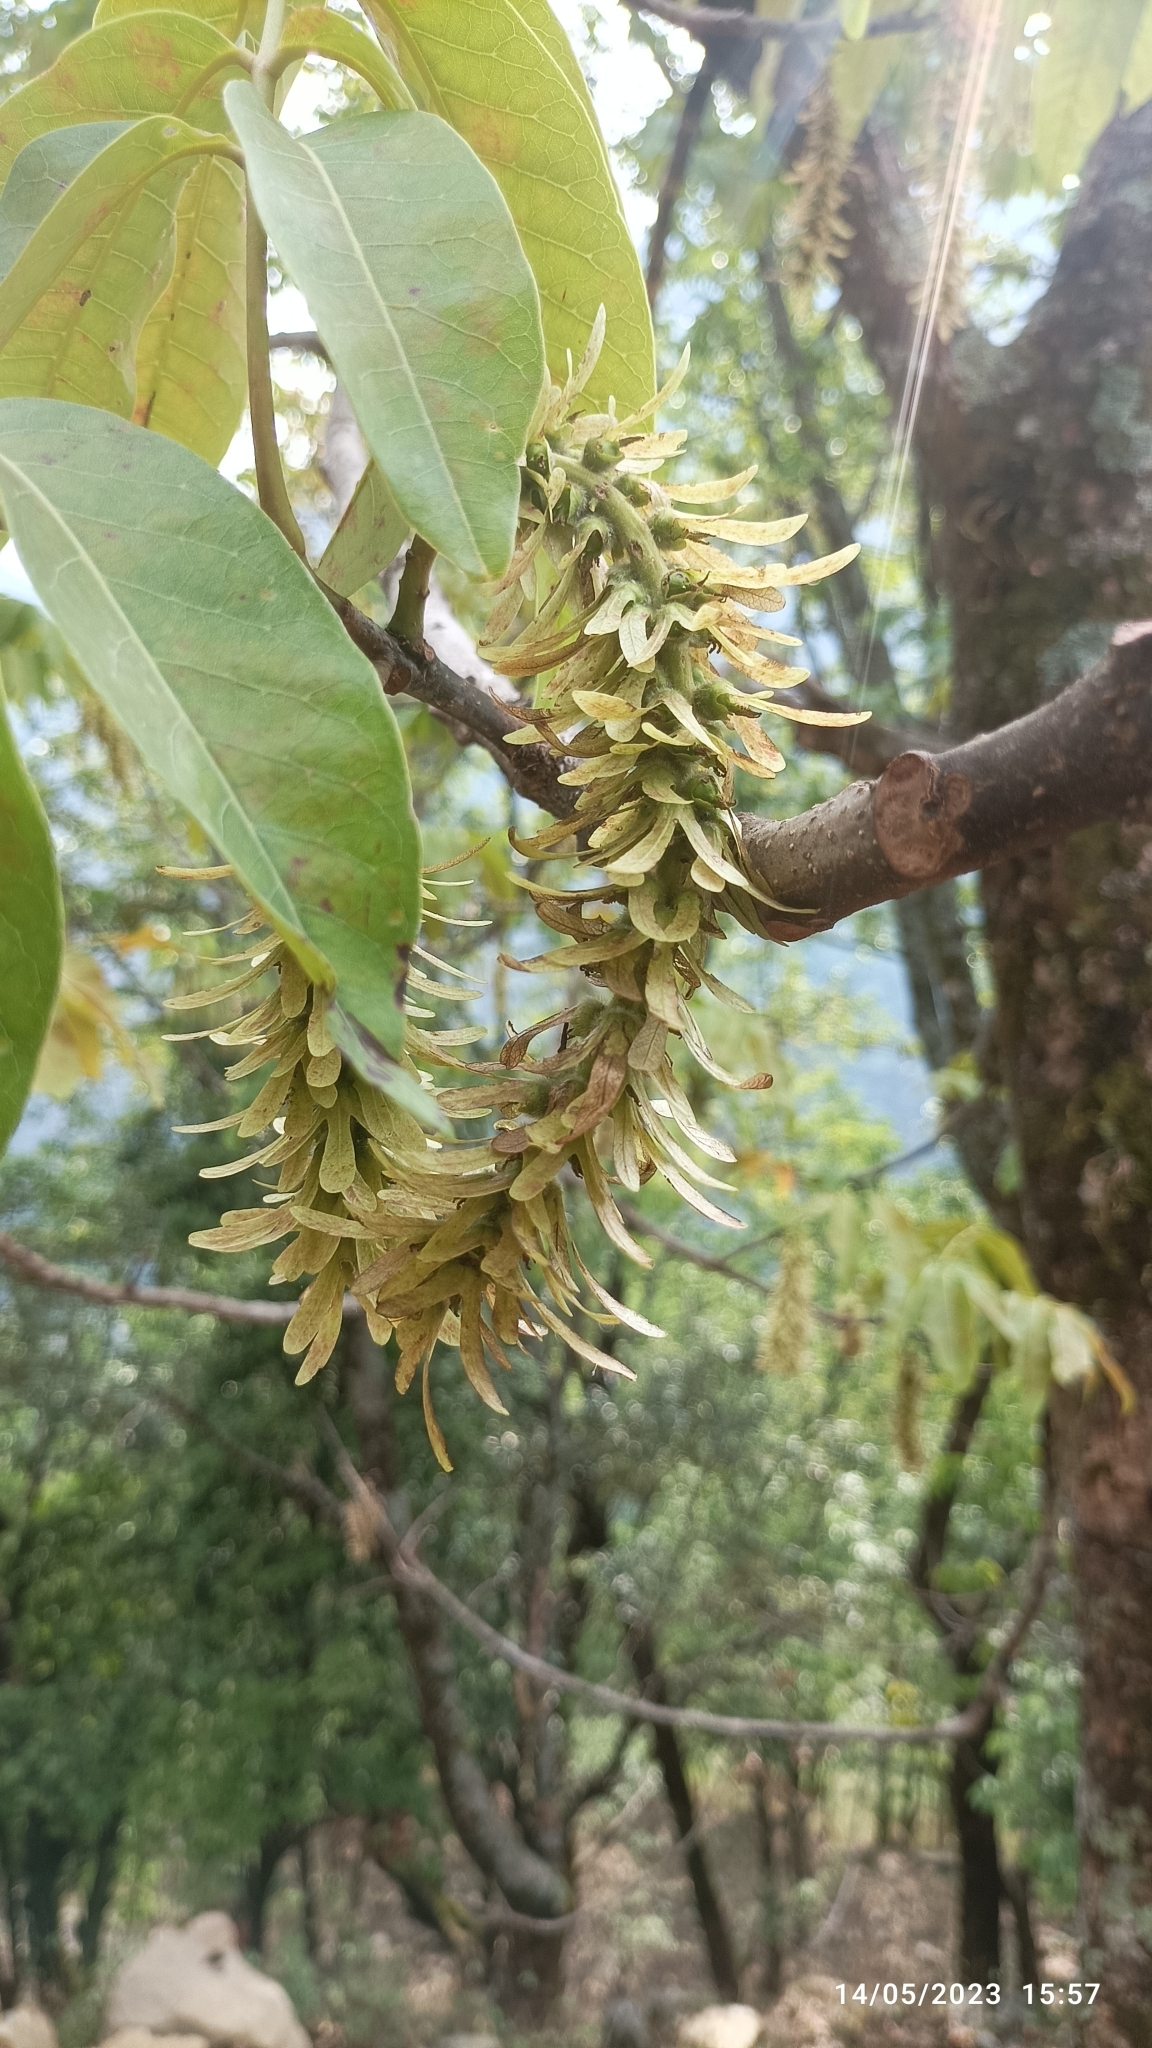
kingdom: Plantae
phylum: Tracheophyta
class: Magnoliopsida
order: Fagales
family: Juglandaceae
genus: Engelhardia
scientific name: Engelhardia spicata
